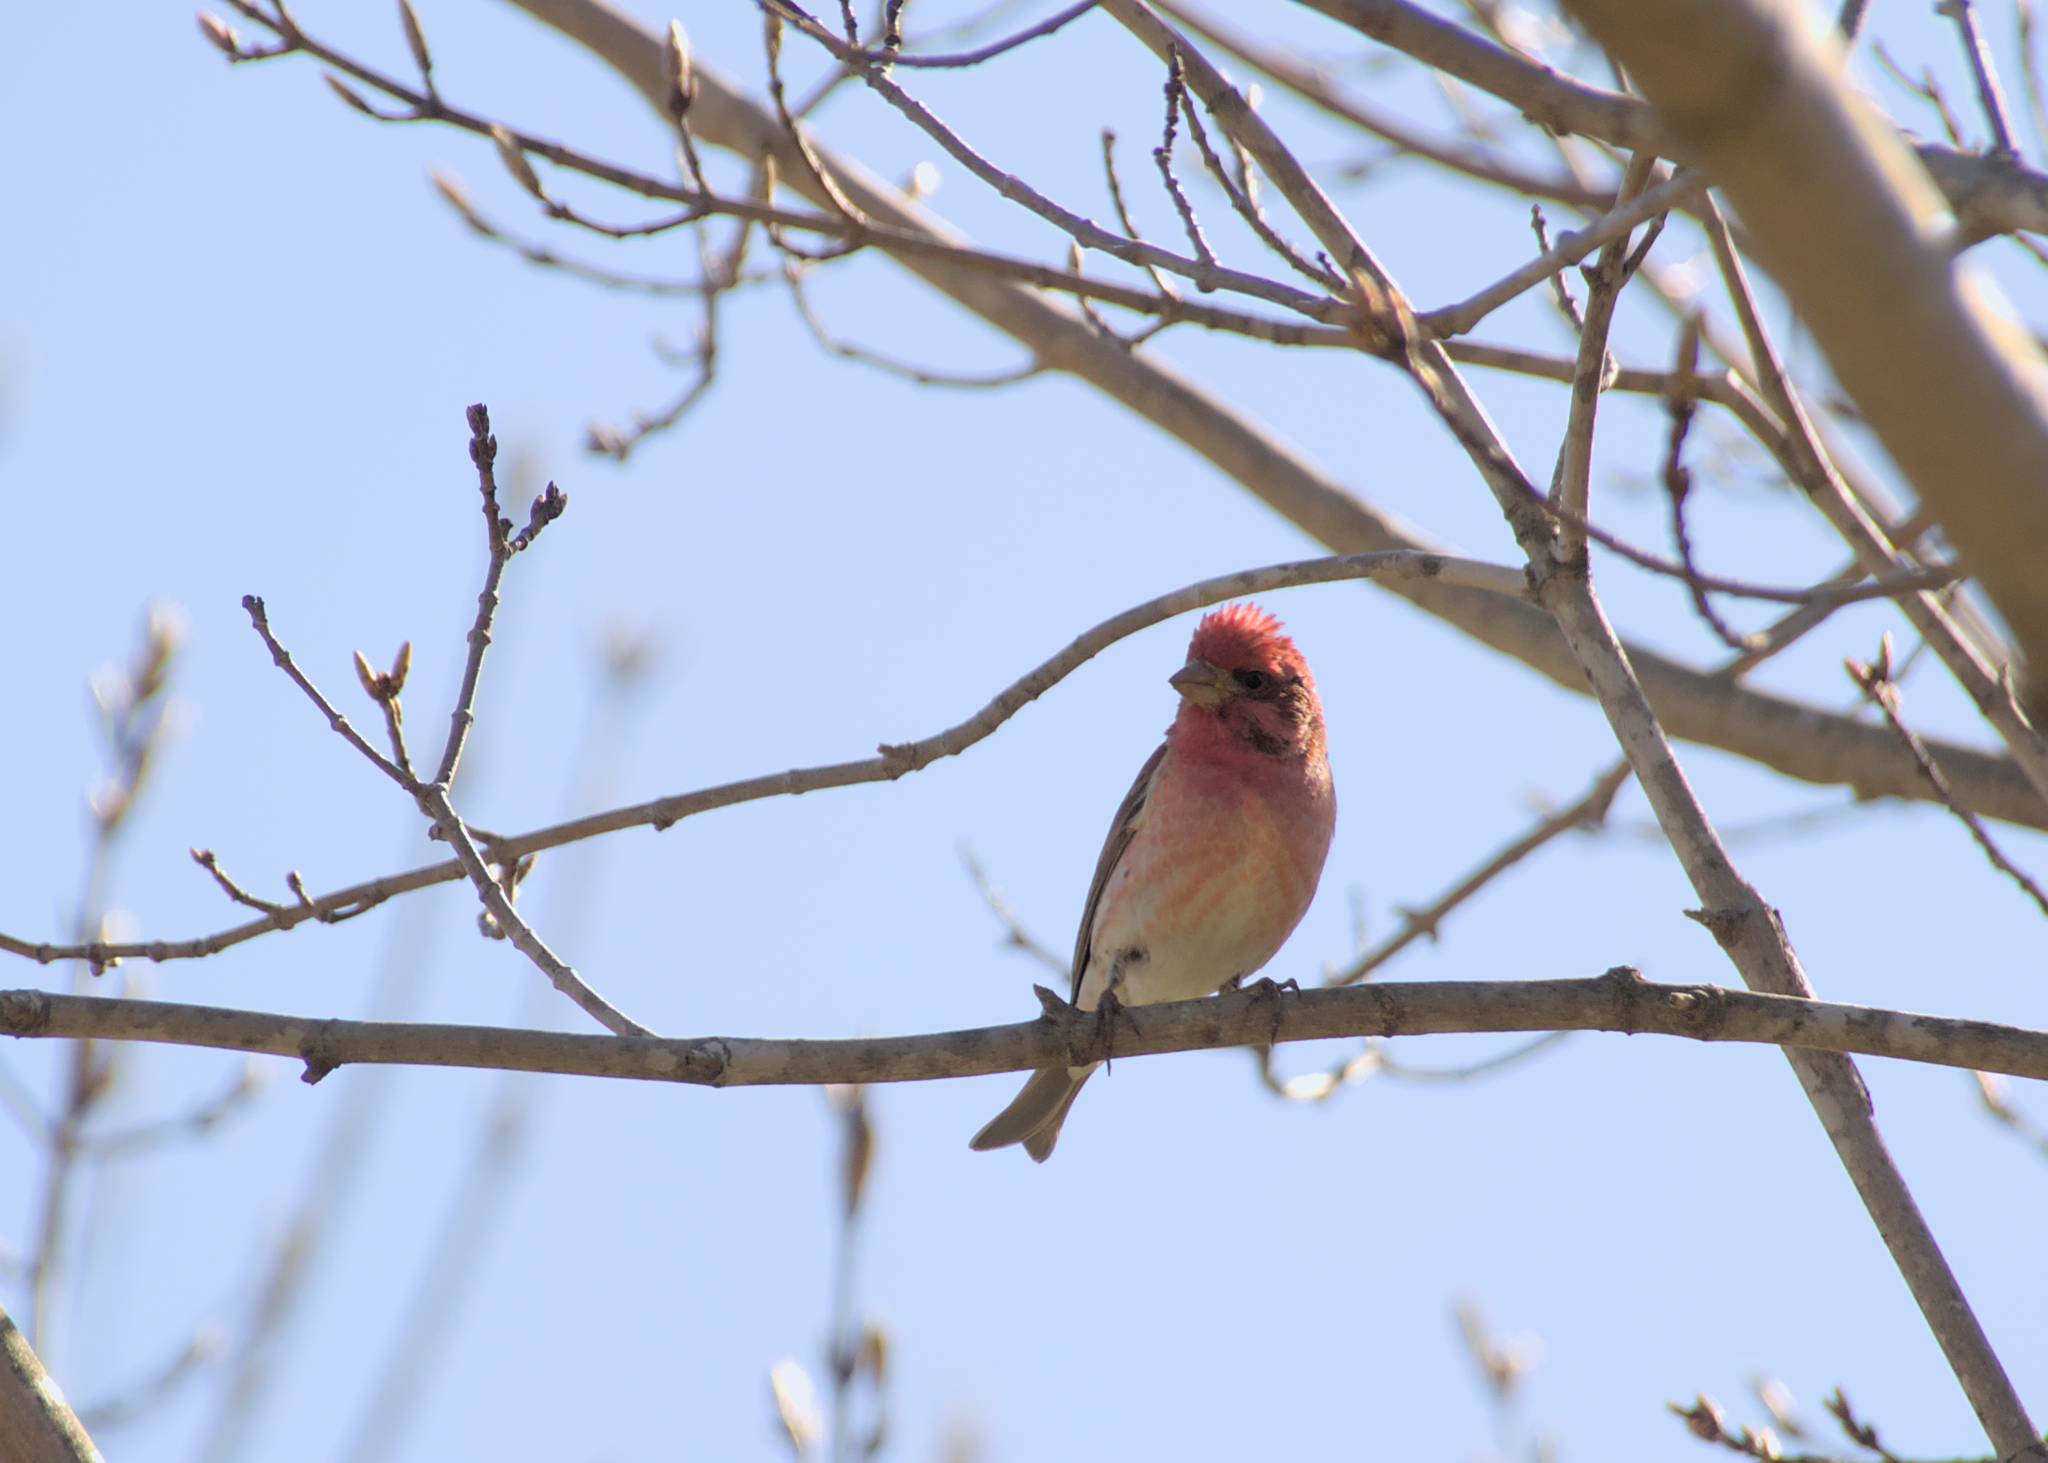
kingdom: Animalia
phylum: Chordata
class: Aves
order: Passeriformes
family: Fringillidae
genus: Haemorhous
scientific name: Haemorhous purpureus
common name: Purple finch
